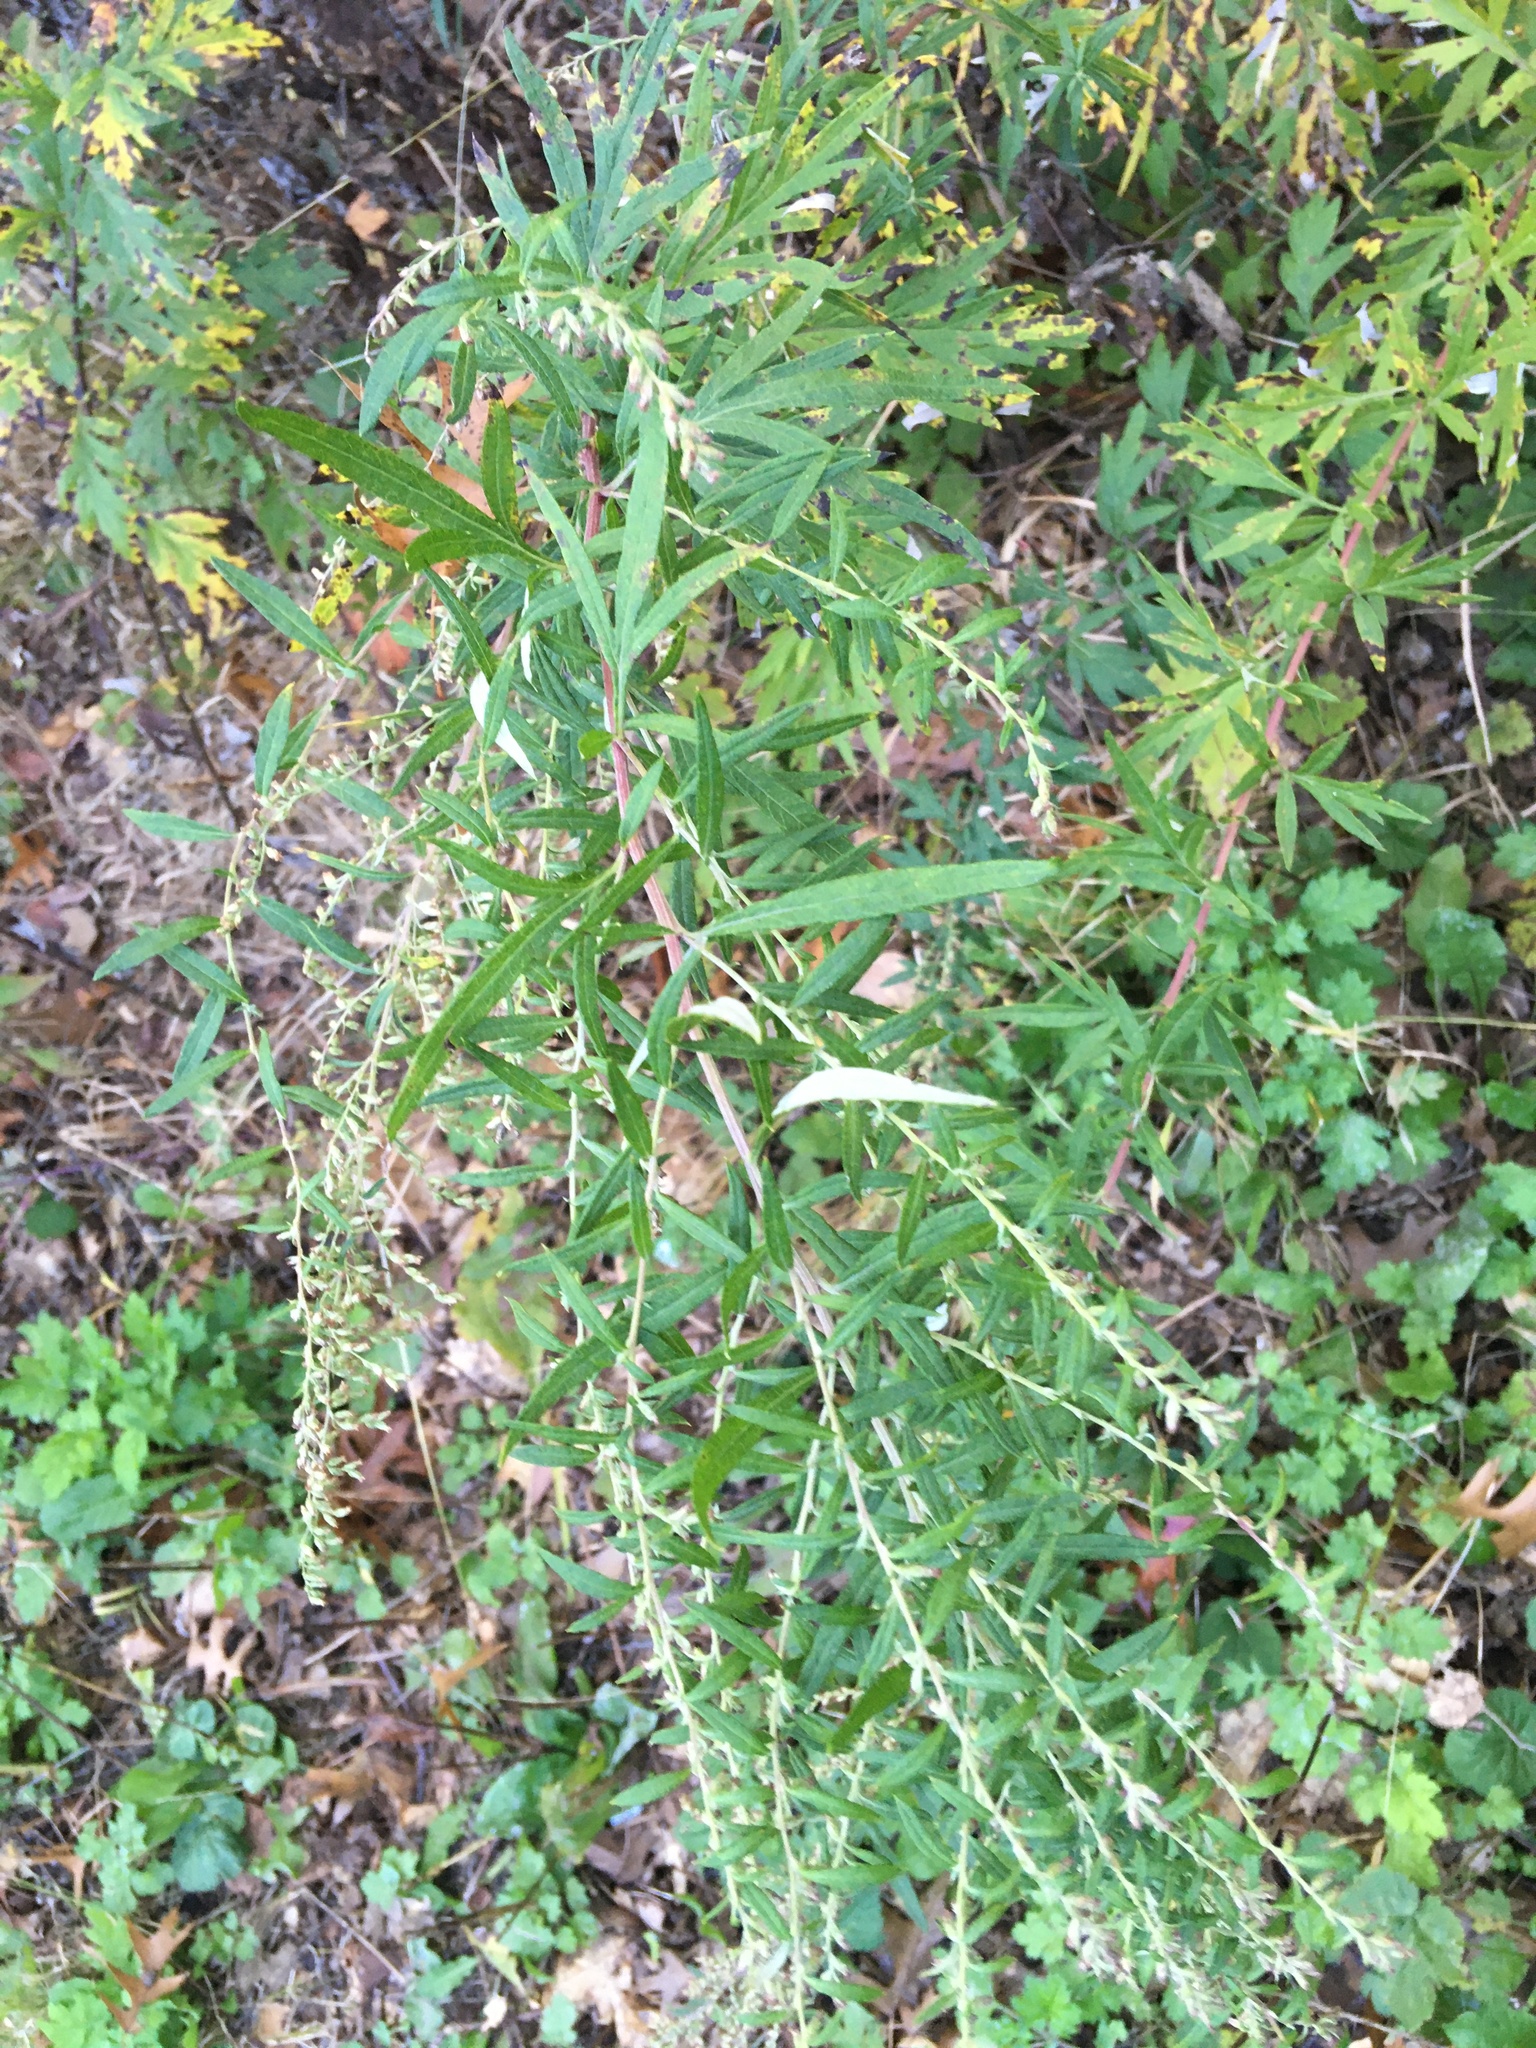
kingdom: Plantae
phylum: Tracheophyta
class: Magnoliopsida
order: Asterales
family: Asteraceae
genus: Artemisia
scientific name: Artemisia vulgaris
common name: Mugwort
